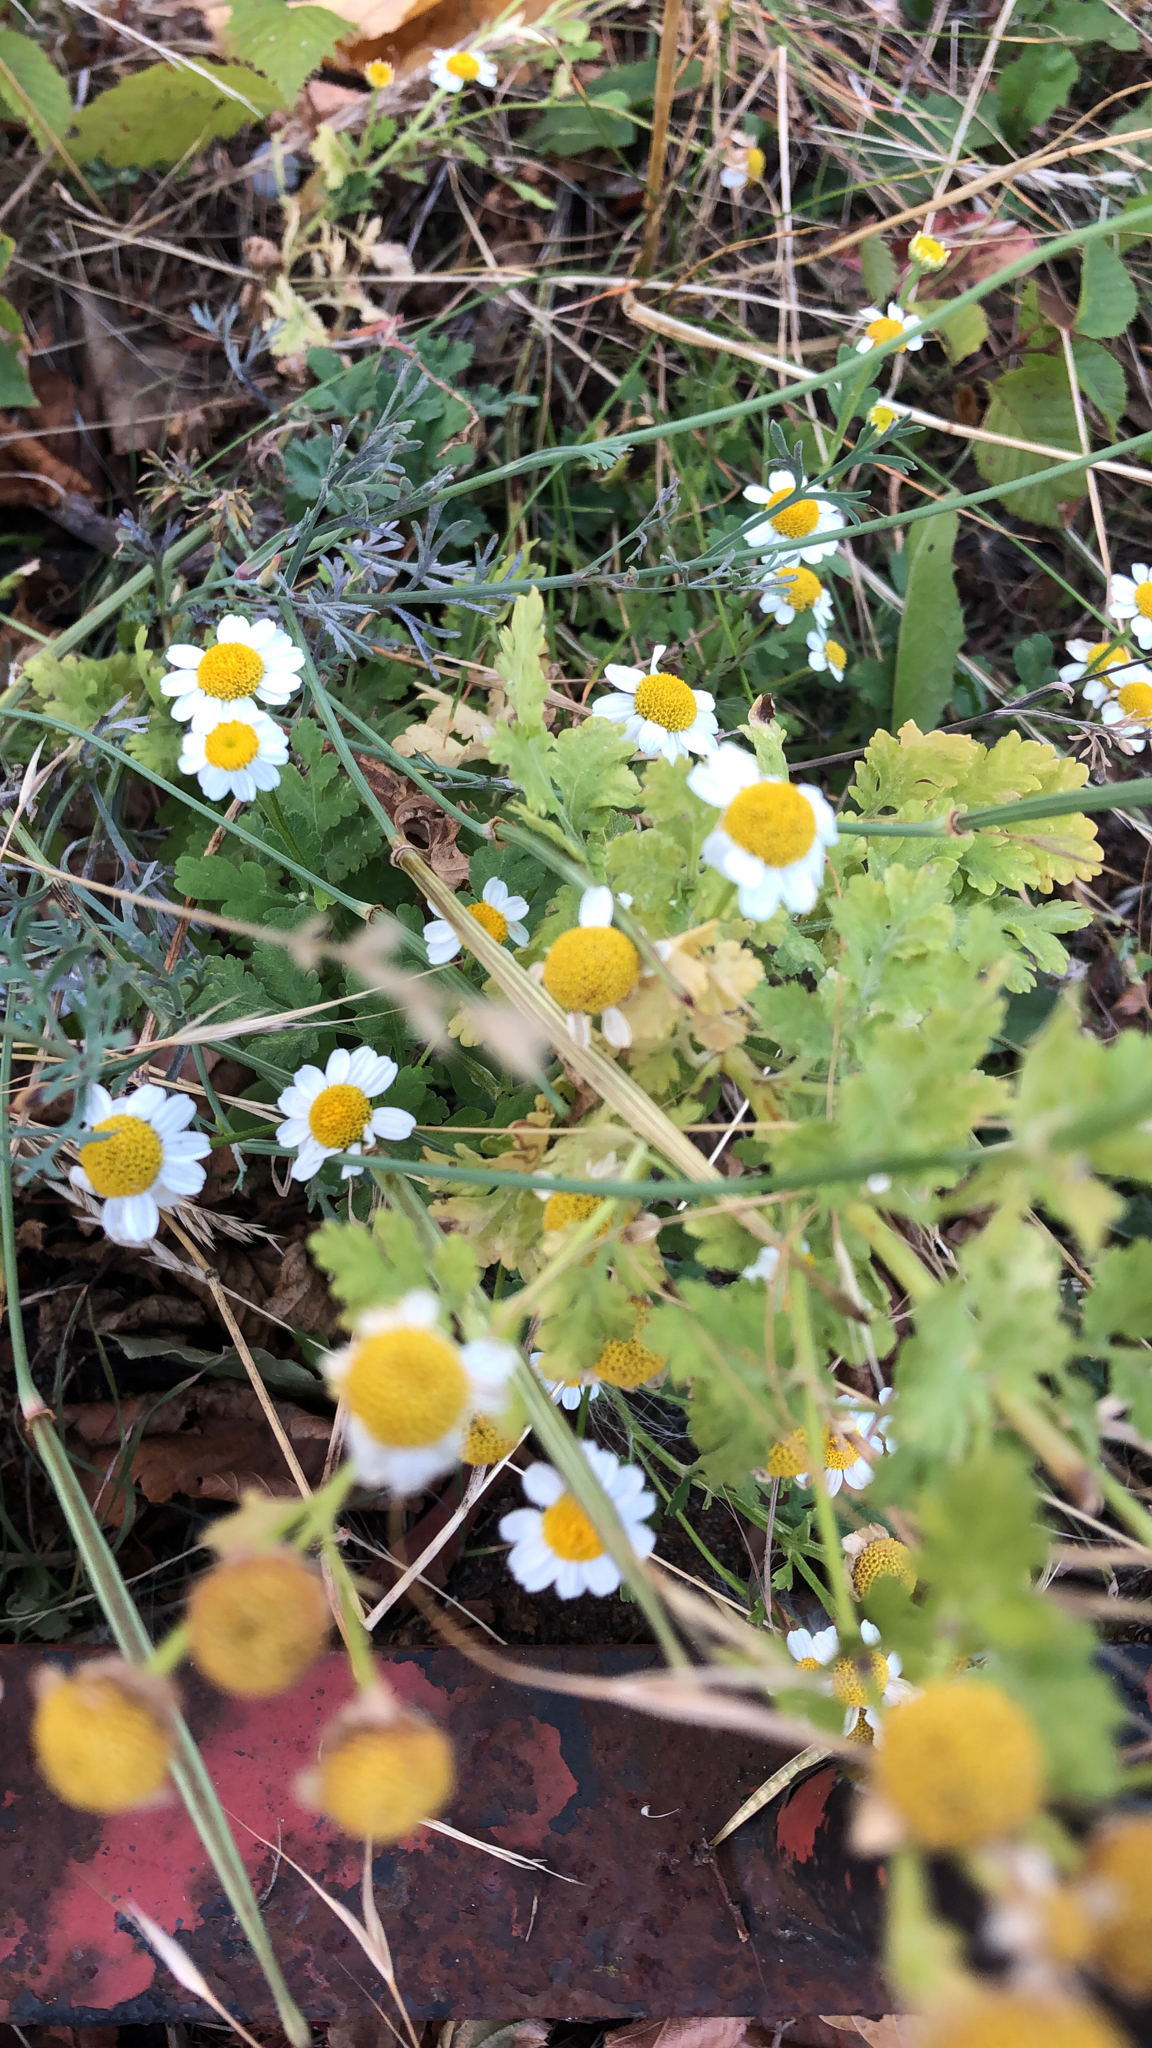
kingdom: Plantae
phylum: Tracheophyta
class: Magnoliopsida
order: Asterales
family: Asteraceae
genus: Tanacetum
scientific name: Tanacetum parthenium
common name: Feverfew
